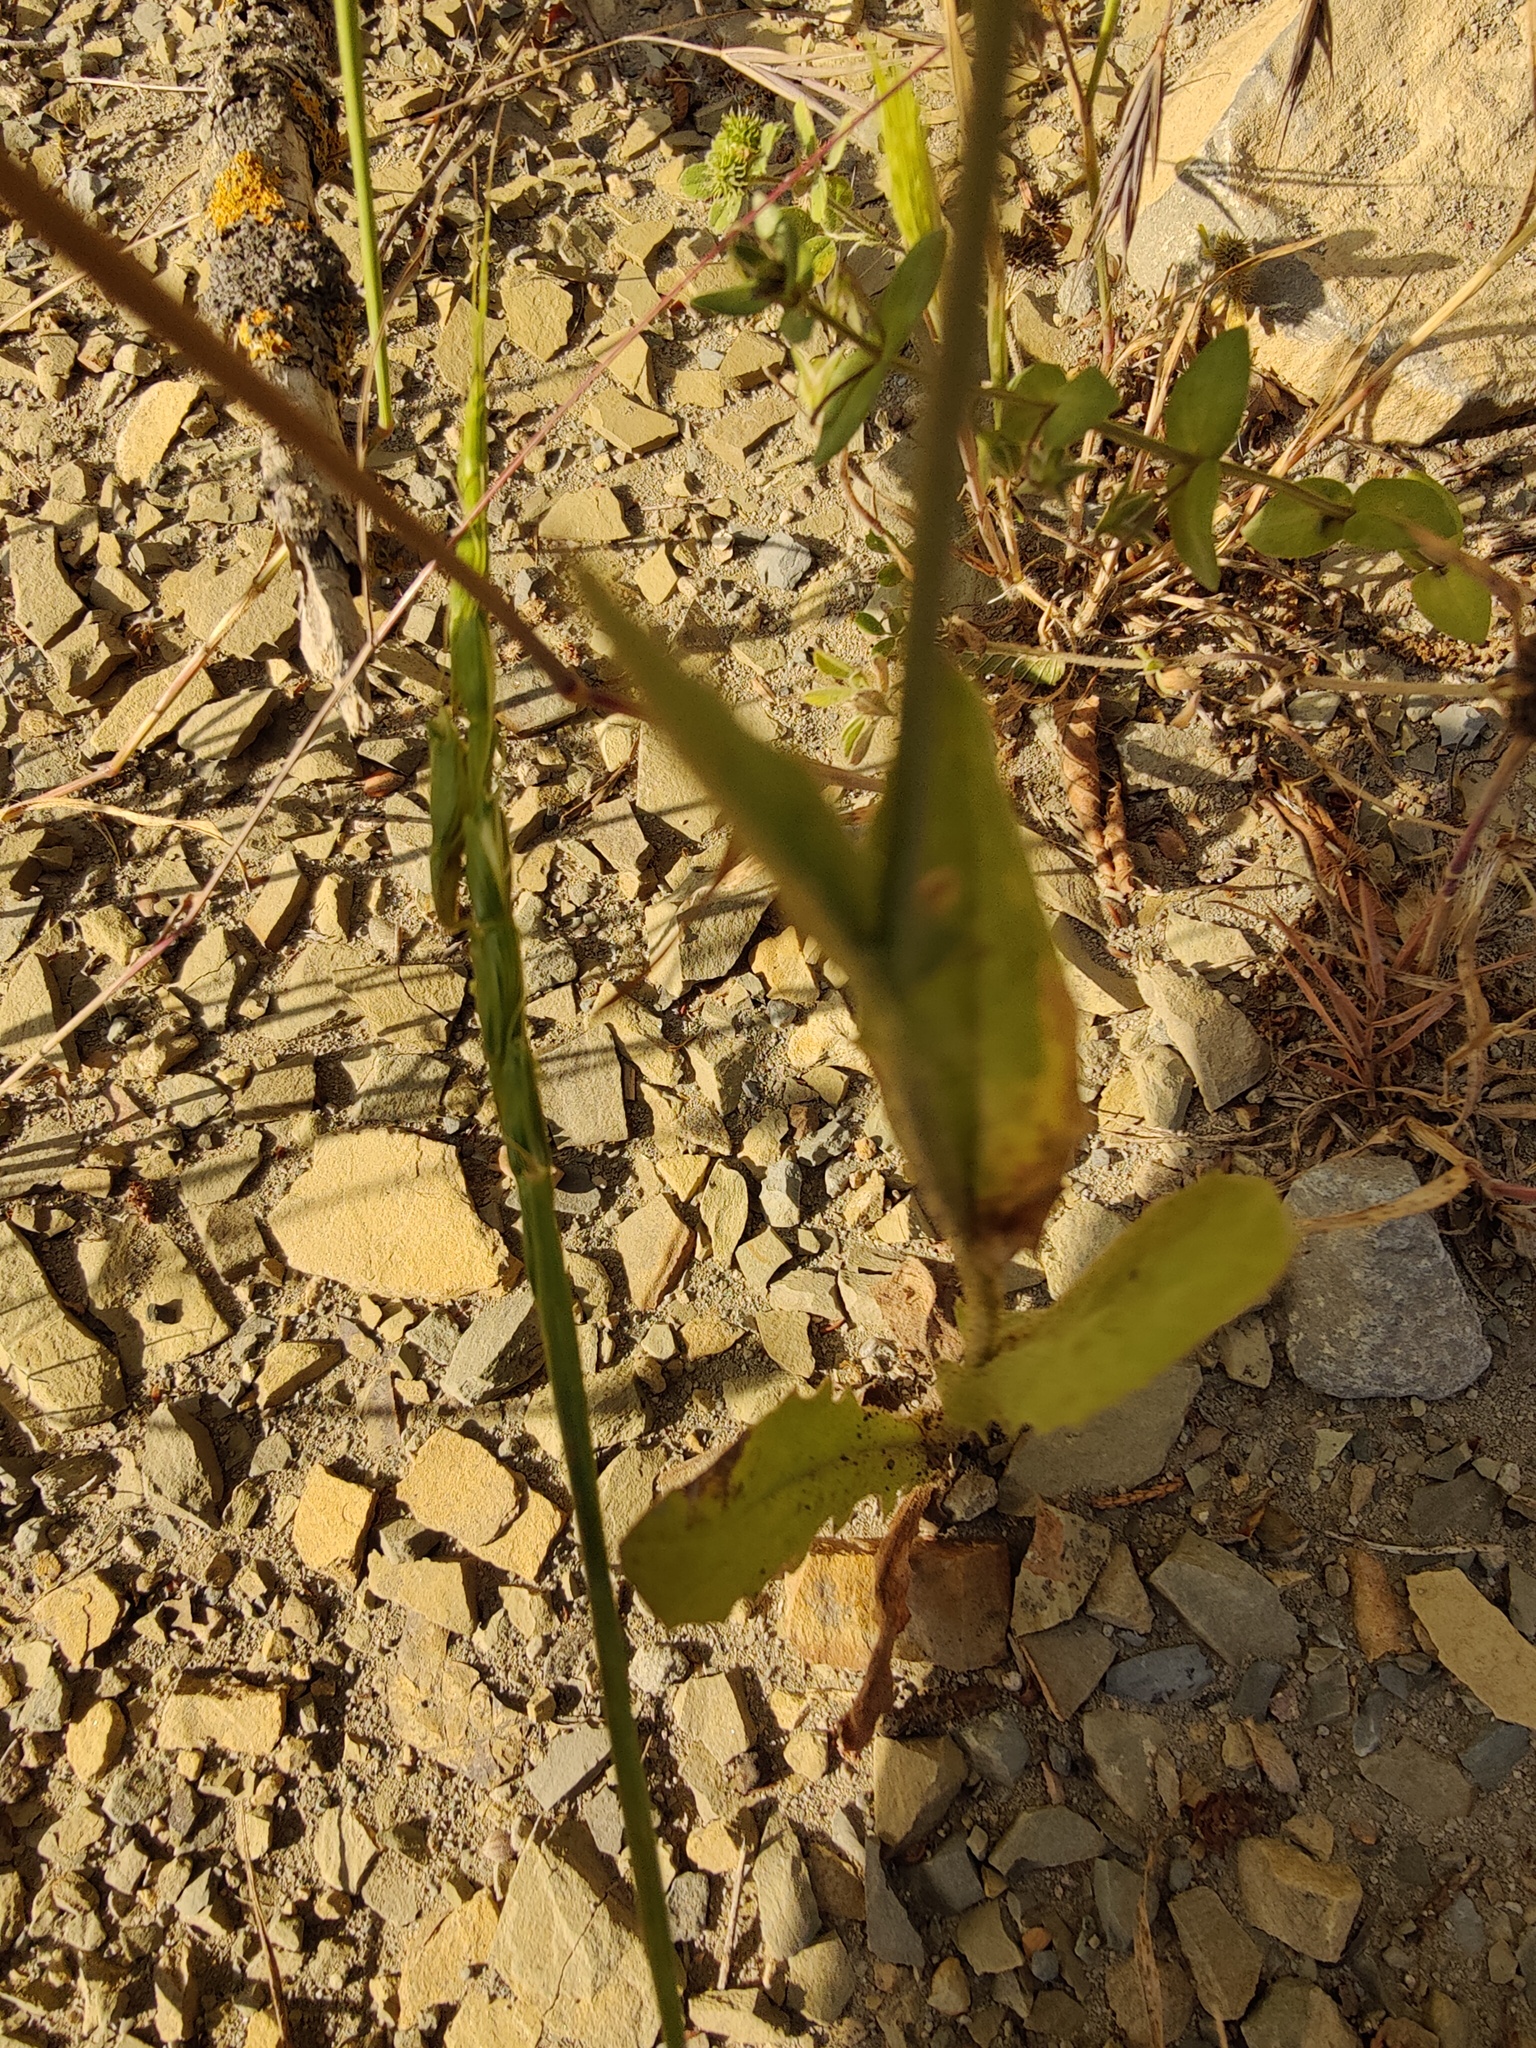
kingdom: Plantae
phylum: Tracheophyta
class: Magnoliopsida
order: Asterales
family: Asteraceae
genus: Crepis
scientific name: Crepis pulchra
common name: Hawk's-beard
